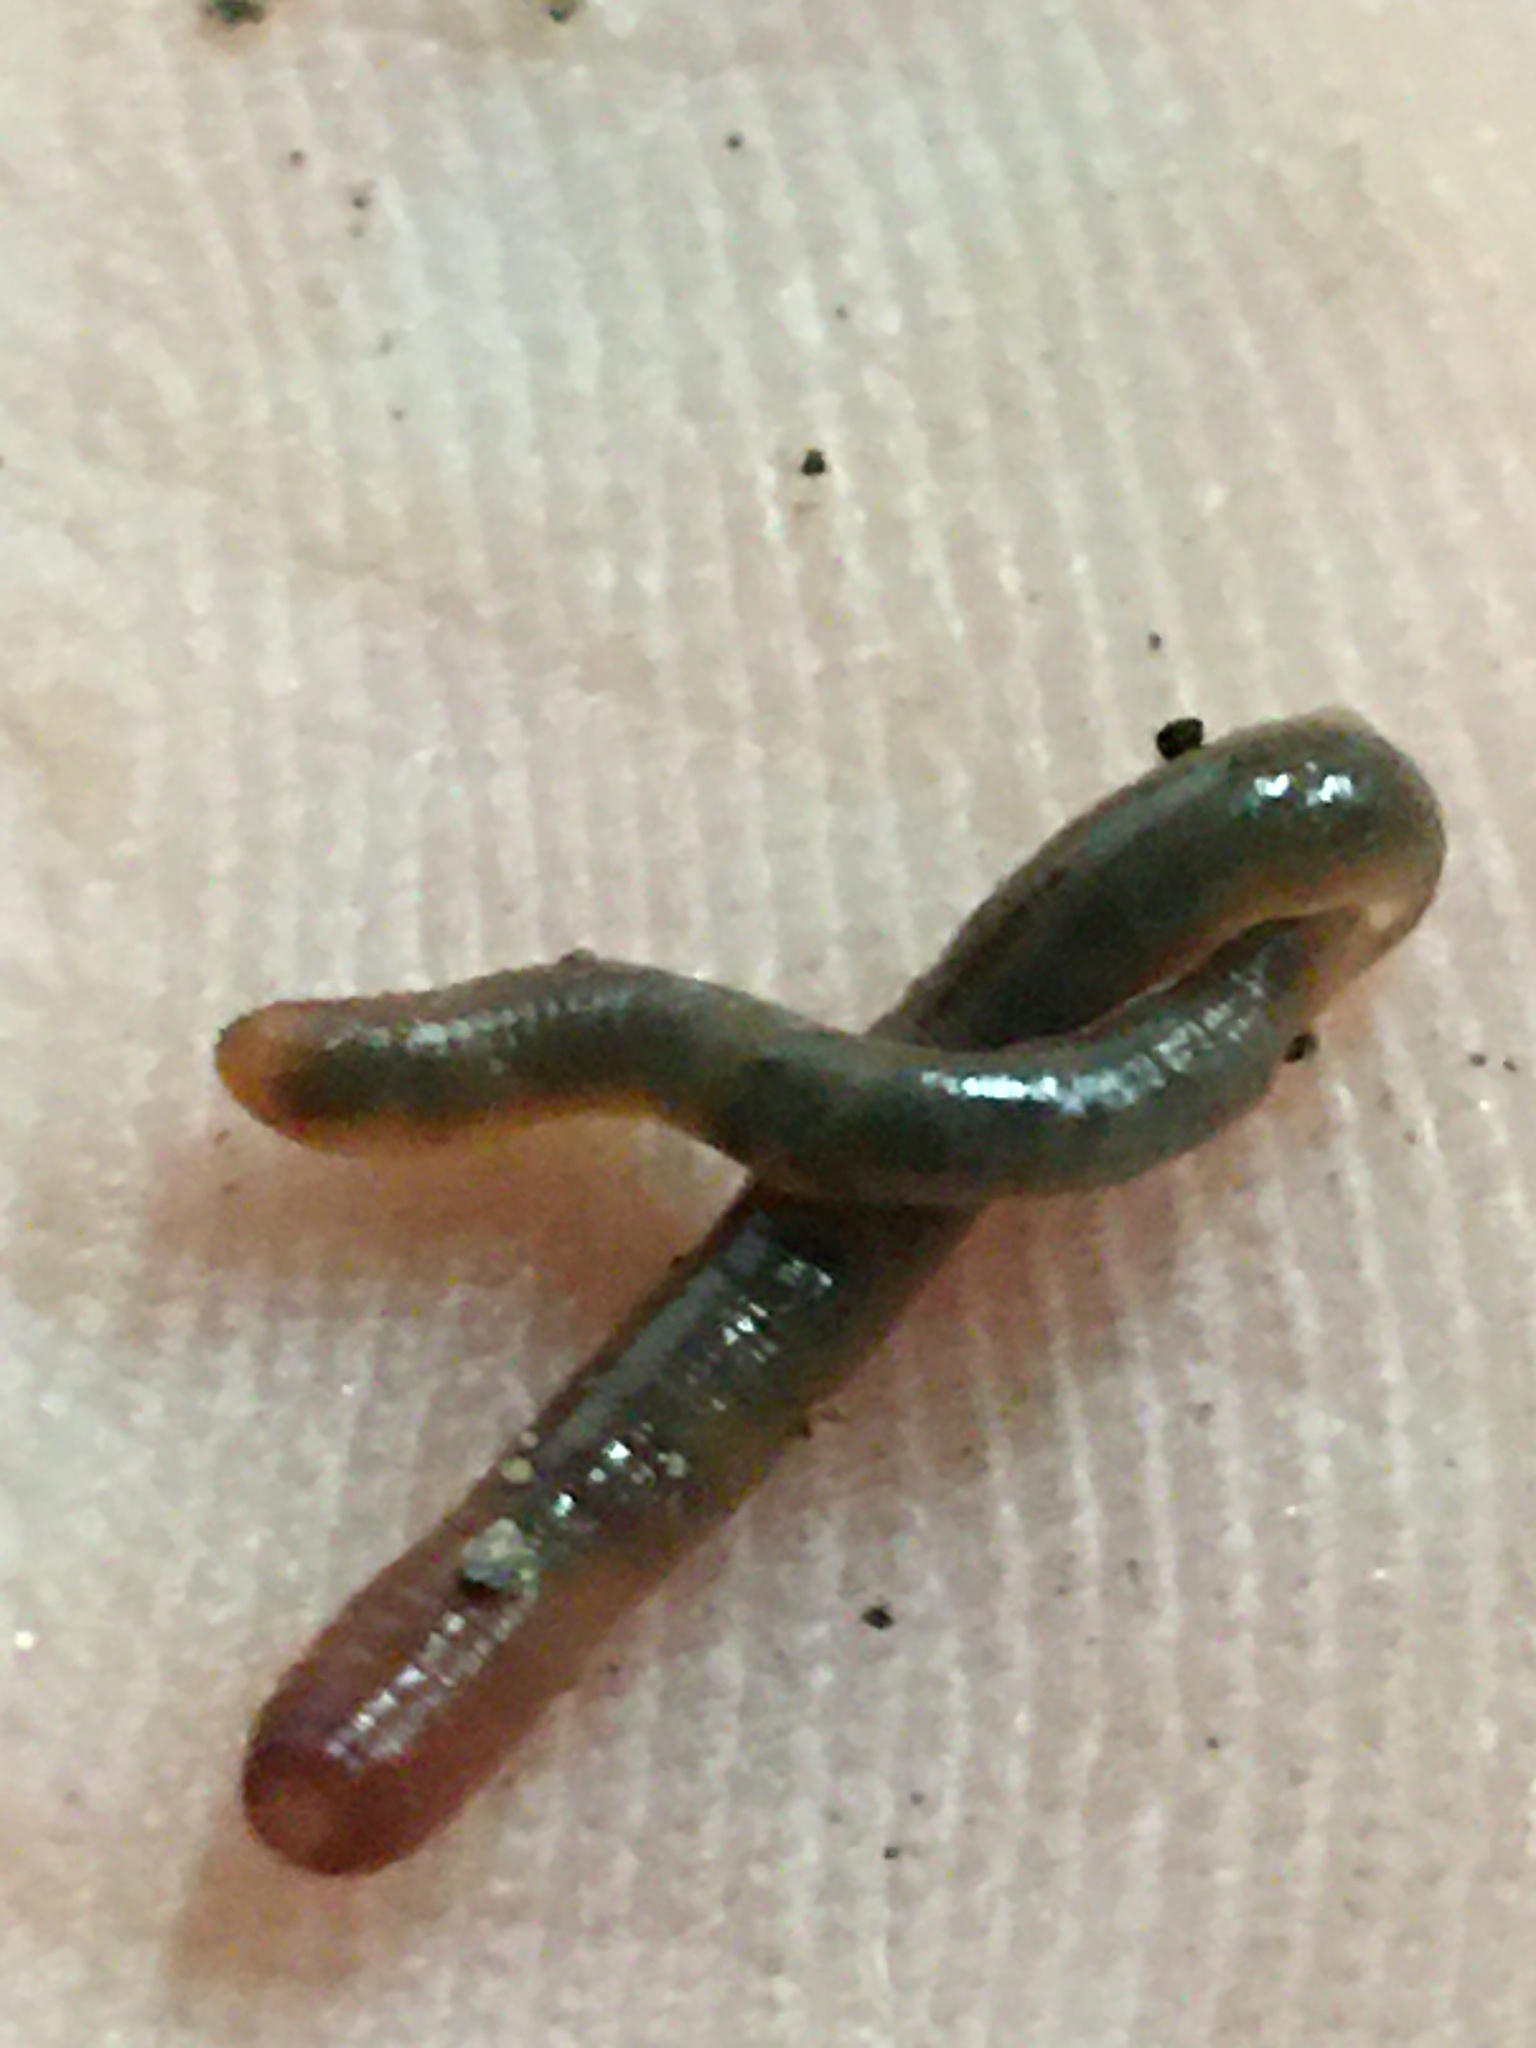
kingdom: Animalia
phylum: Annelida
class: Clitellata
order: Crassiclitellata
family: Lumbricidae
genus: Allolobophora
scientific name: Allolobophora chlorotica
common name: Green worm
